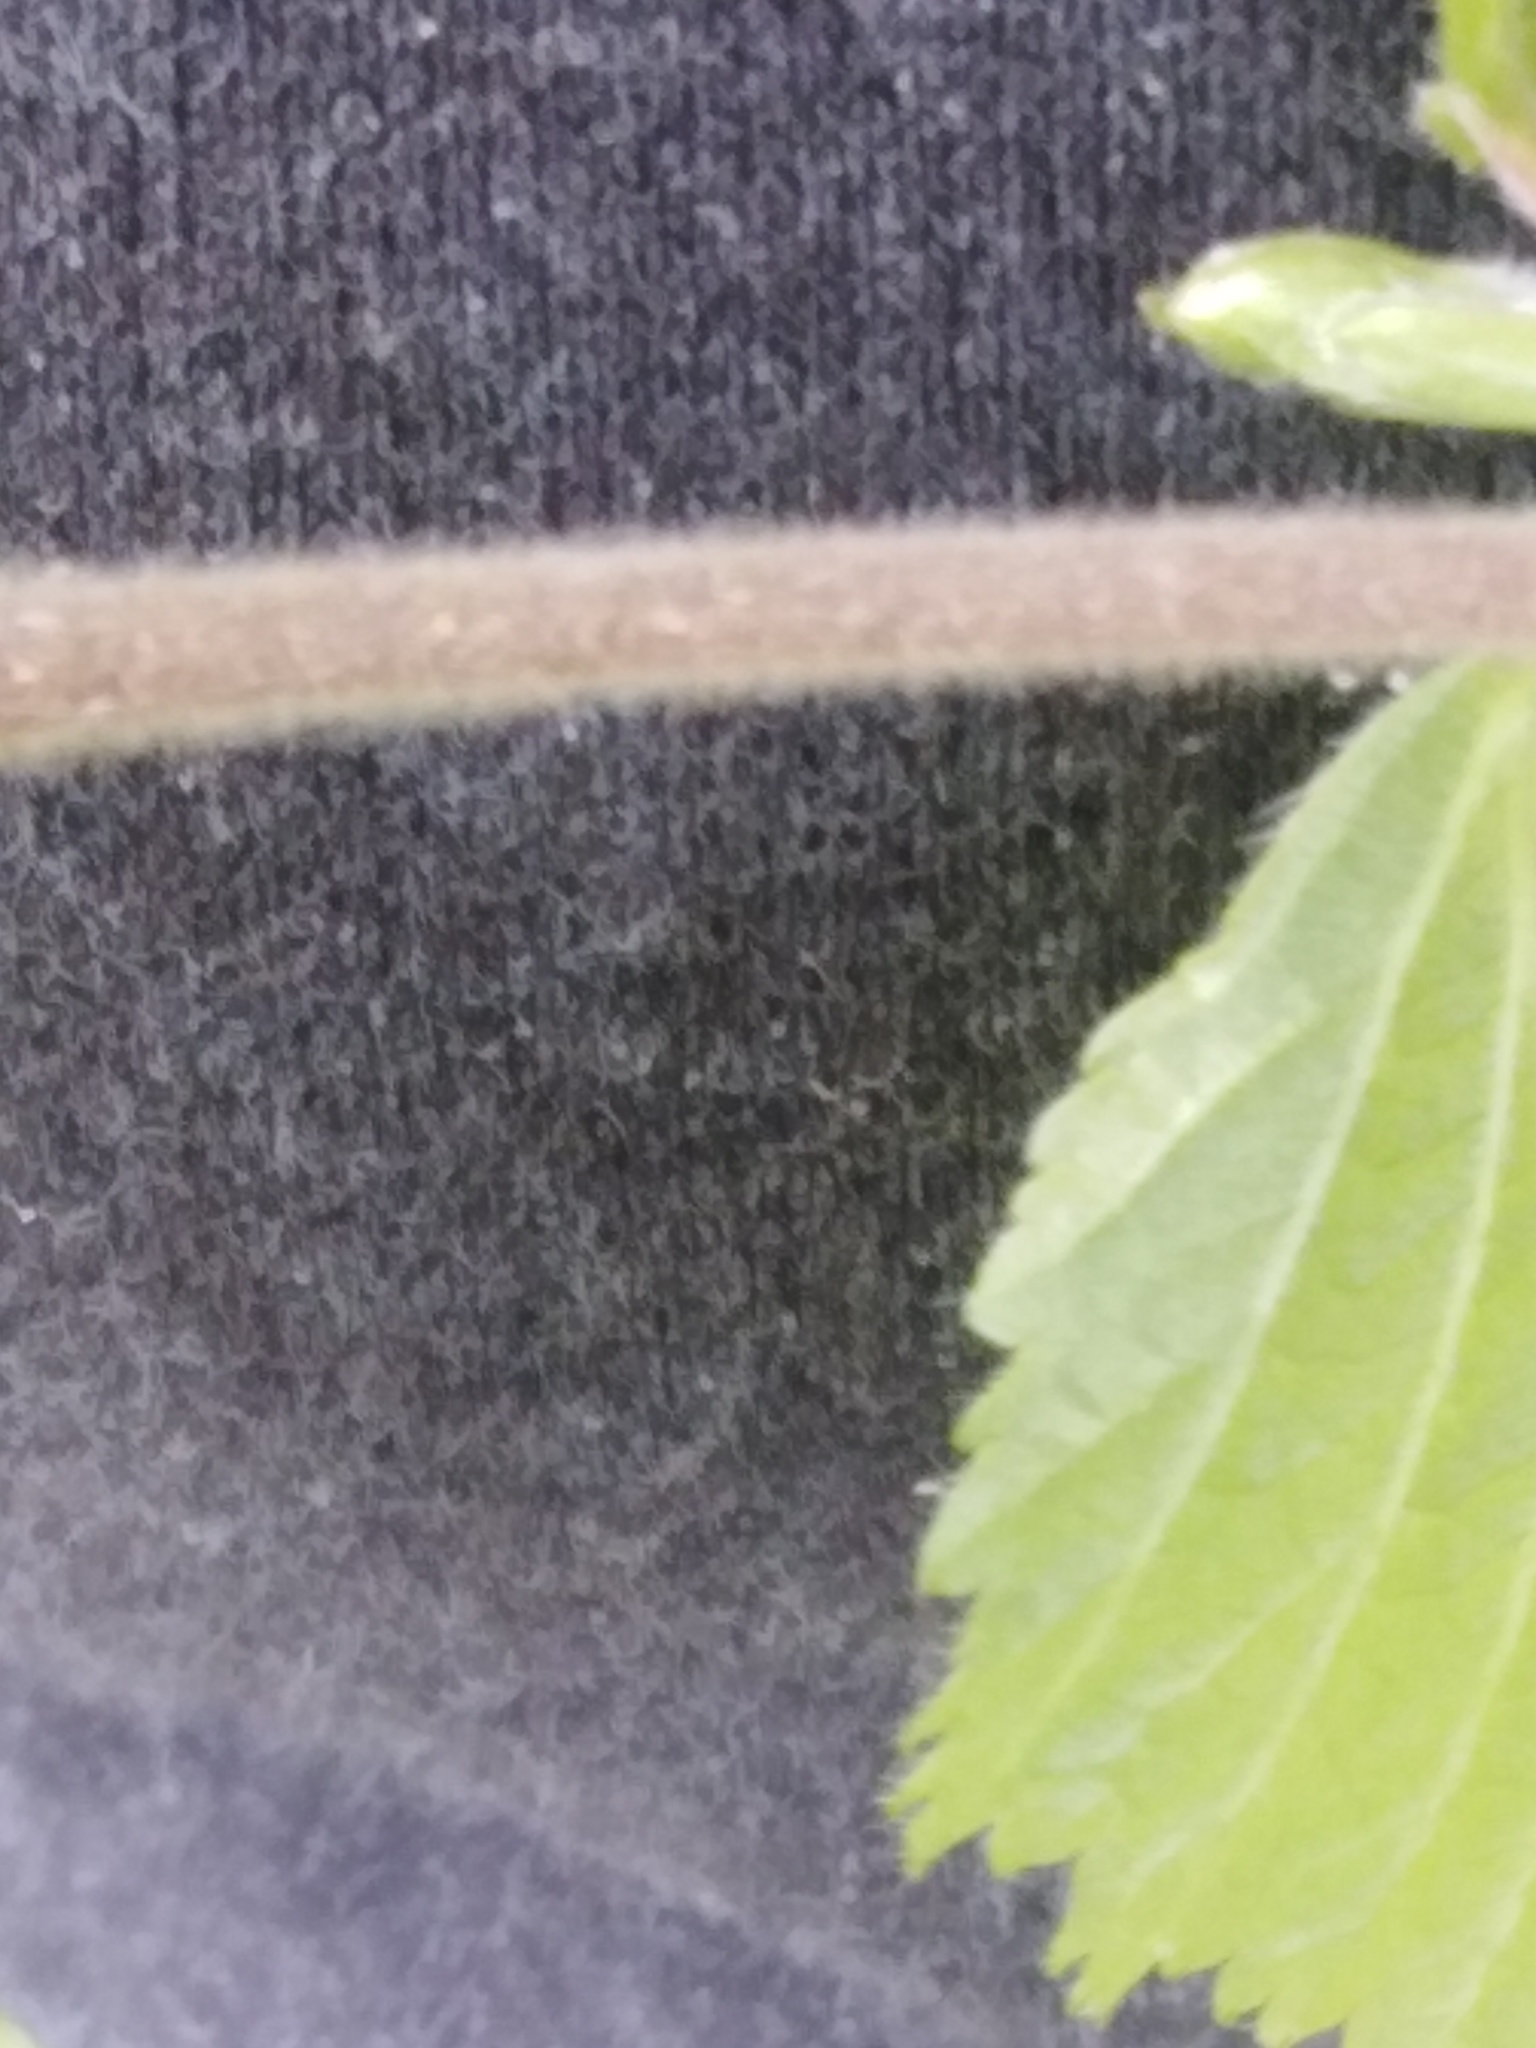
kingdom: Plantae
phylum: Tracheophyta
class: Magnoliopsida
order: Fagales
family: Betulaceae
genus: Betula
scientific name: Betula pubescens
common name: Downy birch
